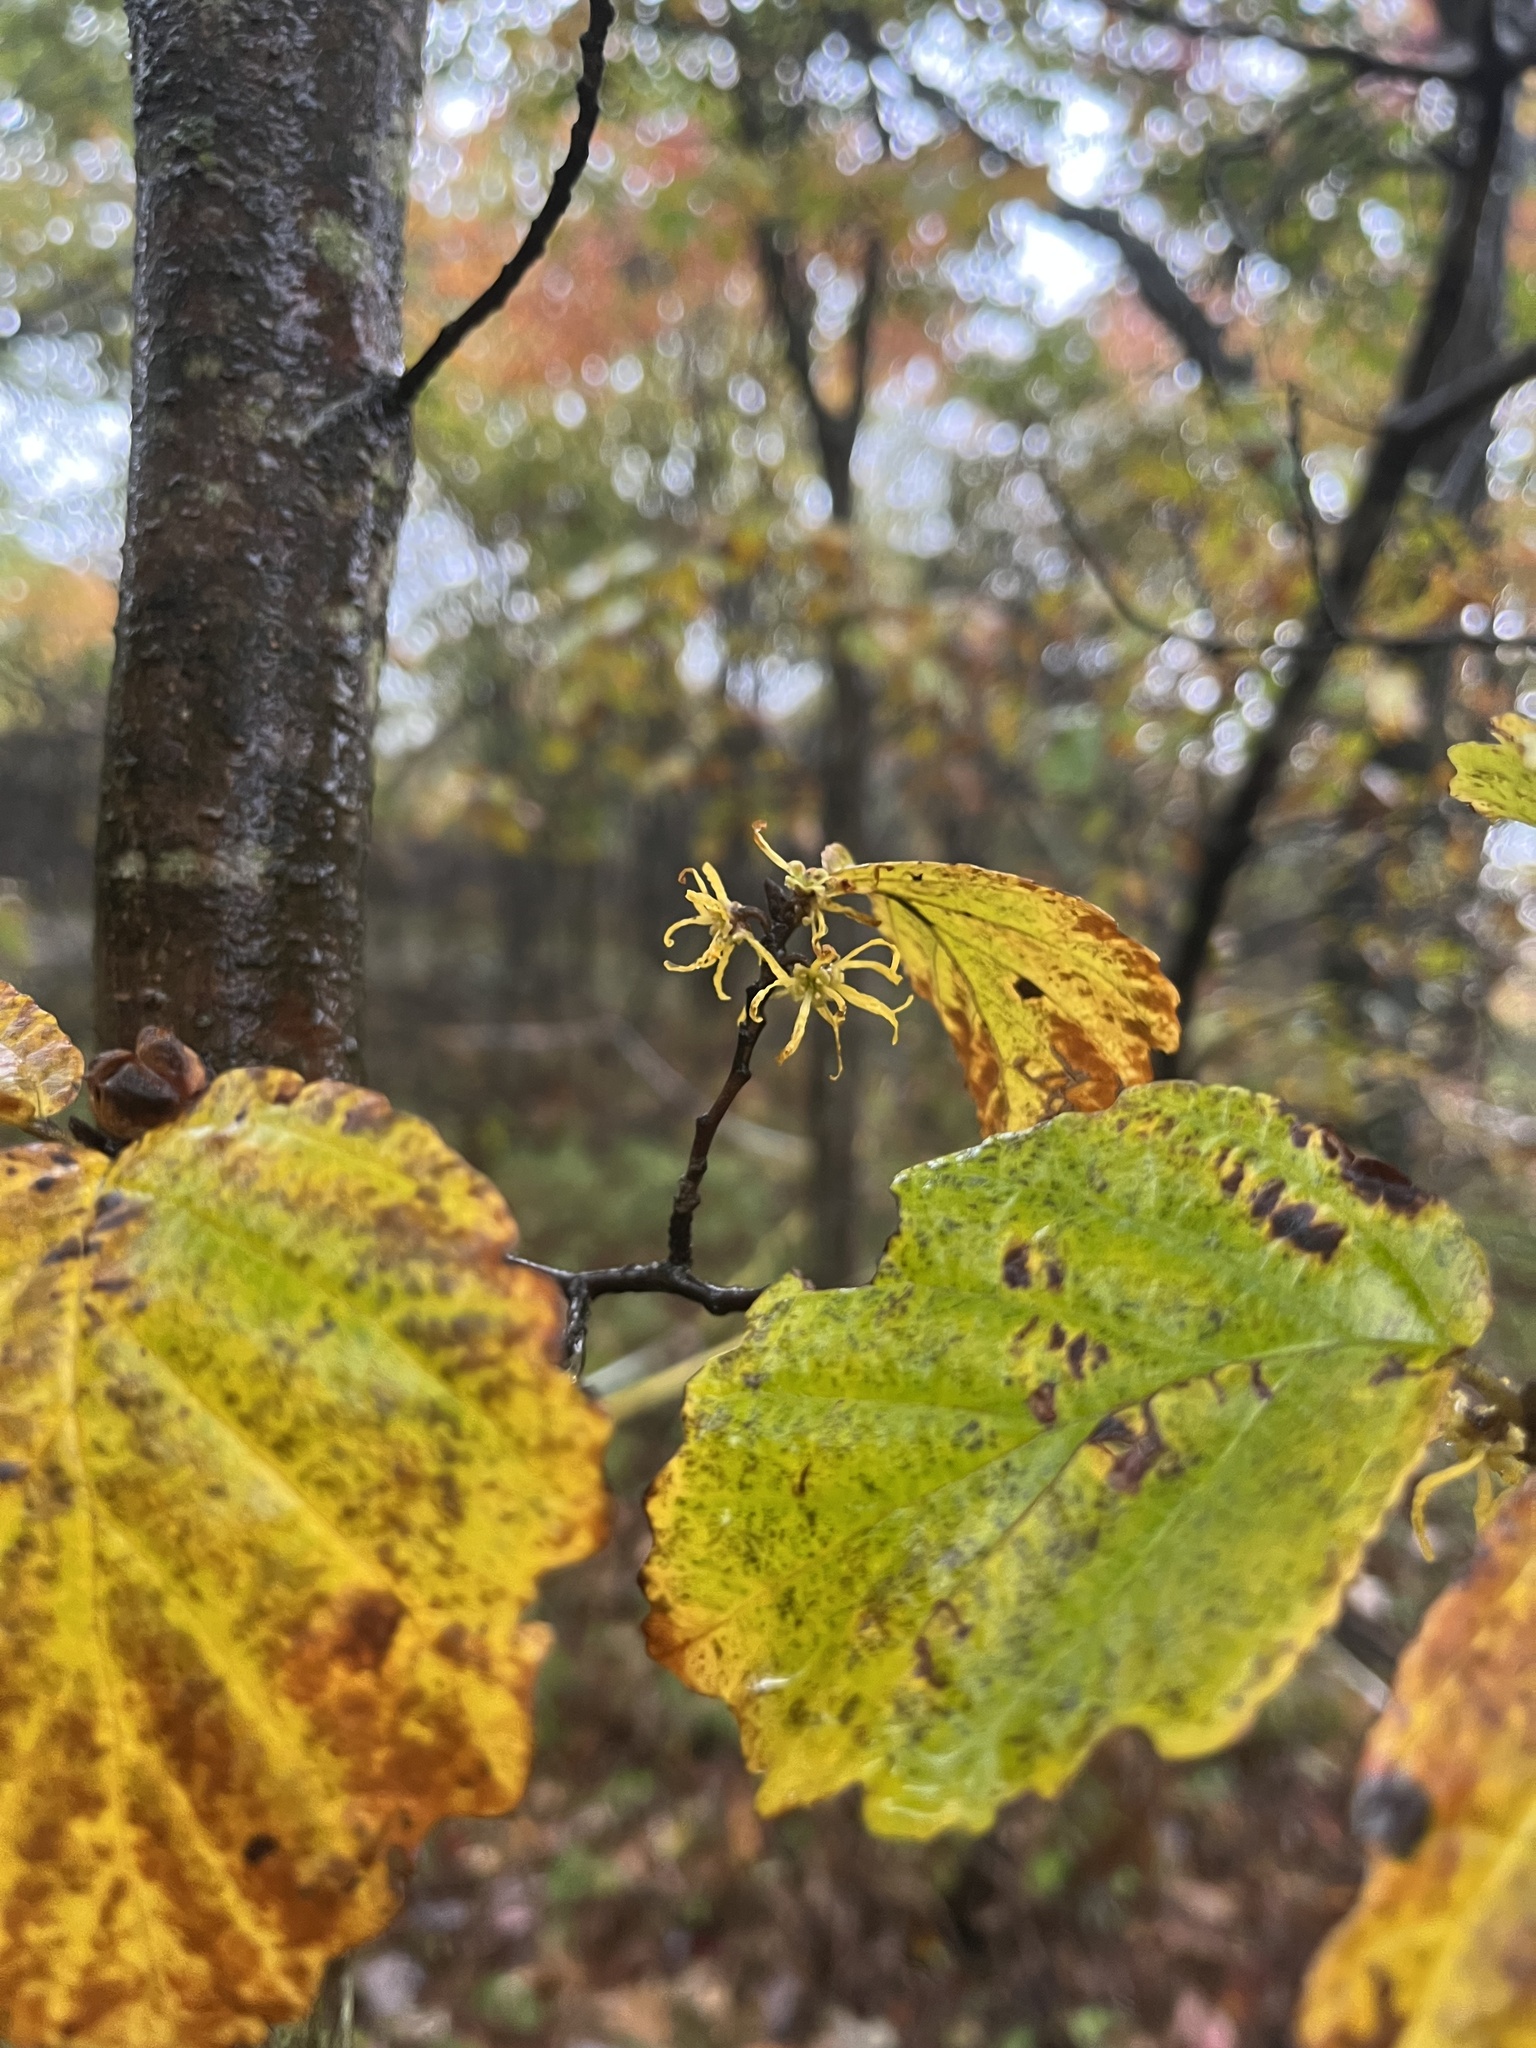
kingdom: Plantae
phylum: Tracheophyta
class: Magnoliopsida
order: Saxifragales
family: Hamamelidaceae
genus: Hamamelis
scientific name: Hamamelis virginiana
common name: Witch-hazel
